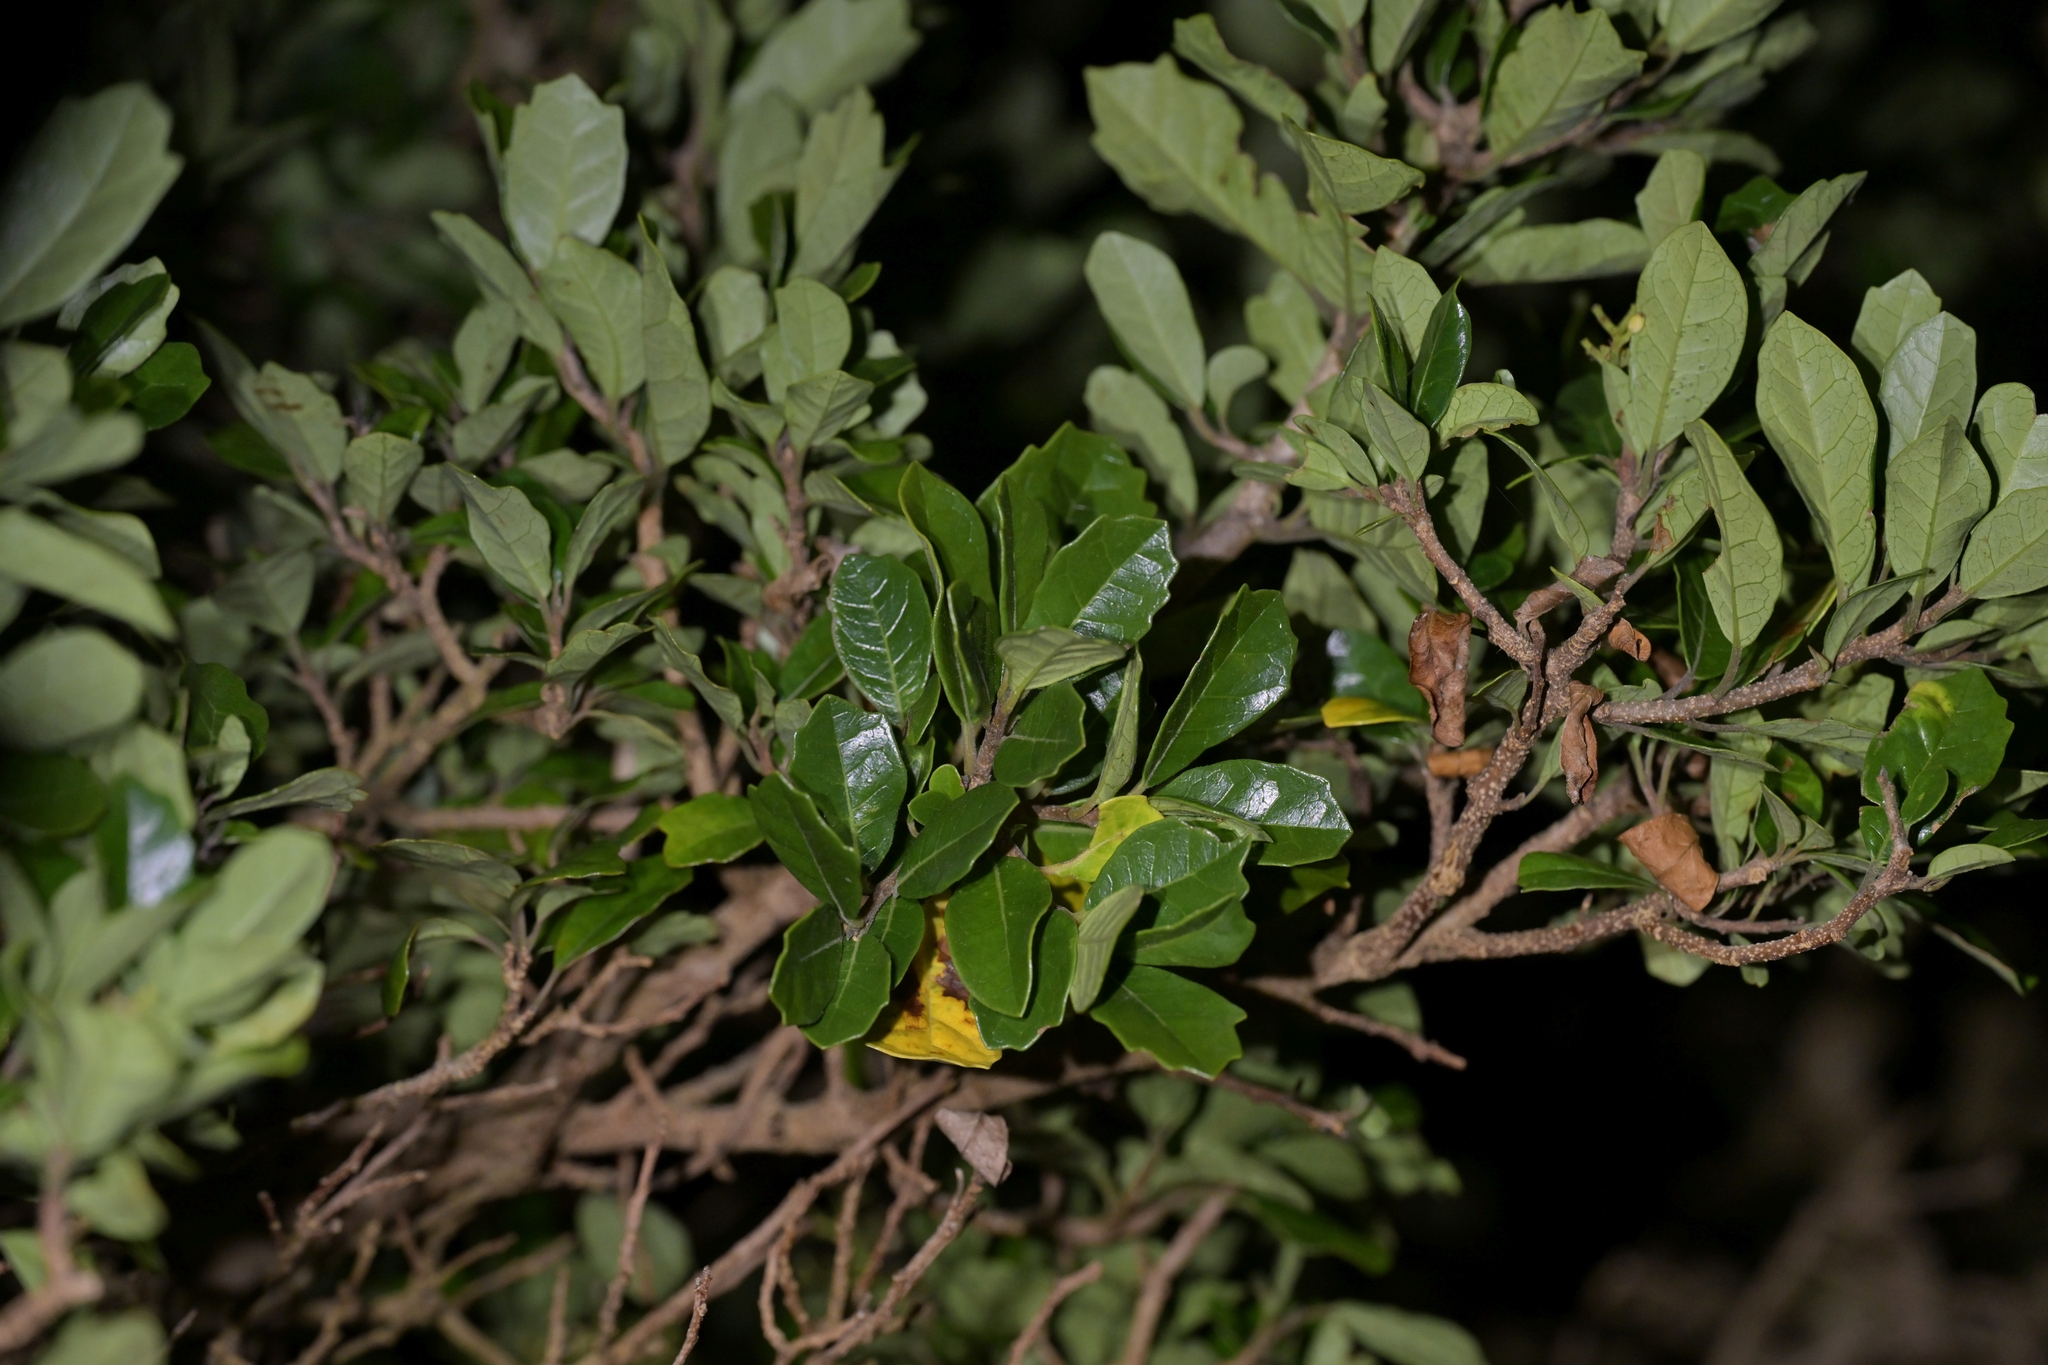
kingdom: Plantae
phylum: Tracheophyta
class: Magnoliopsida
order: Apiales
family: Pennantiaceae
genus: Pennantia
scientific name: Pennantia corymbosa
